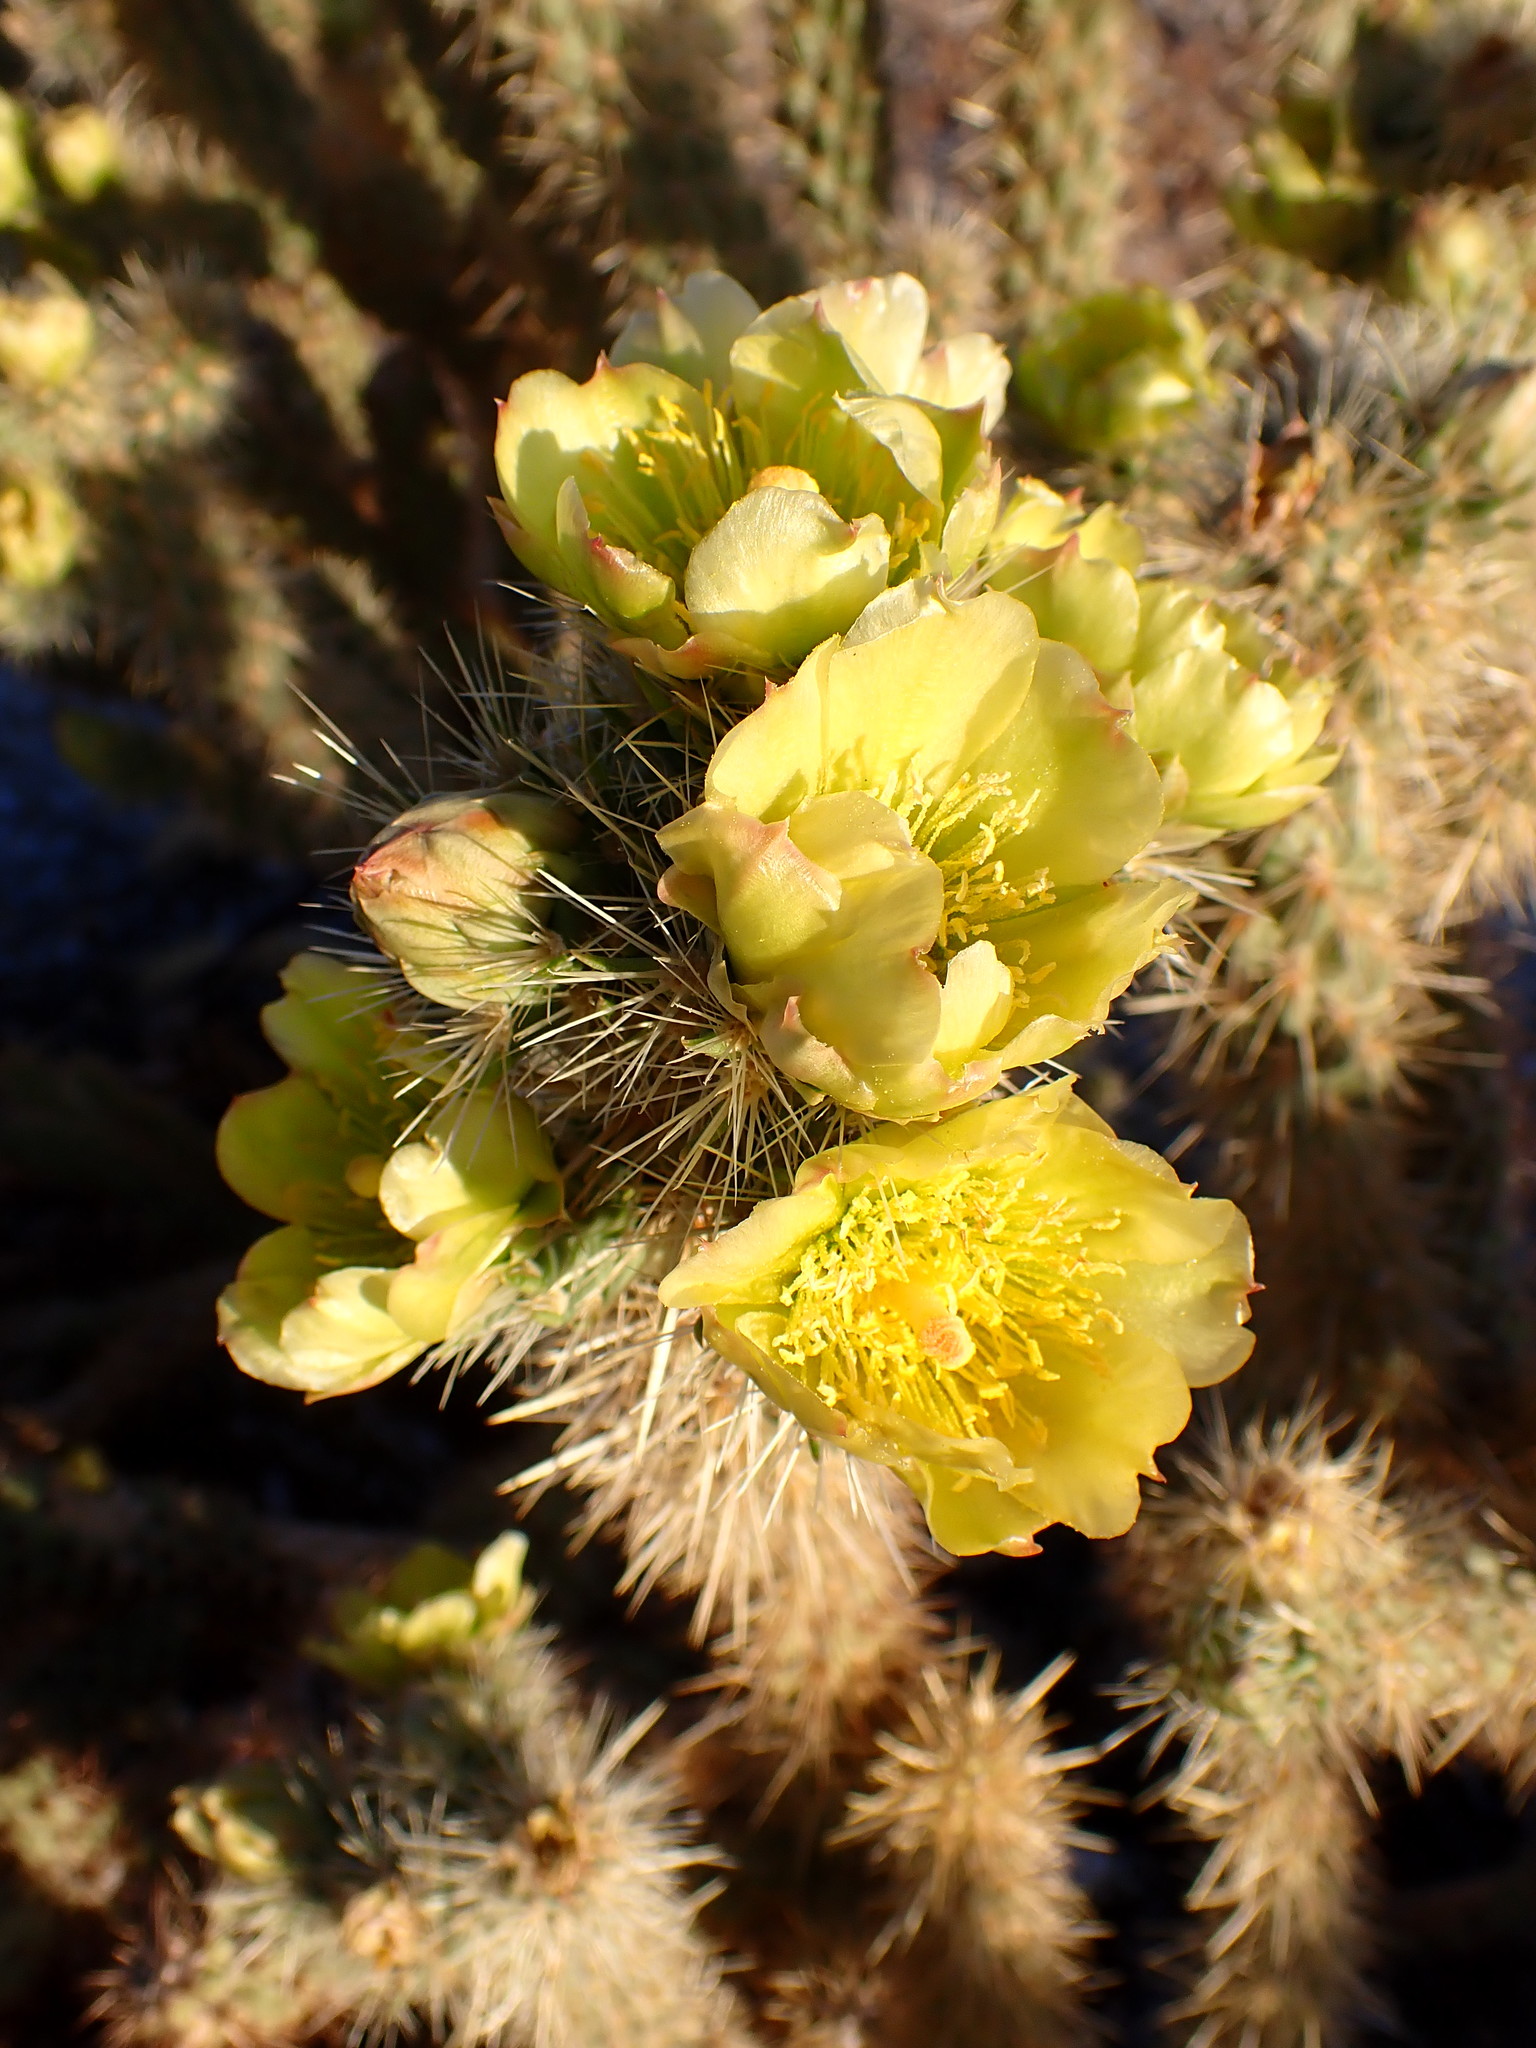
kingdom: Plantae
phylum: Tracheophyta
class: Magnoliopsida
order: Caryophyllales
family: Cactaceae
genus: Cylindropuntia
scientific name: Cylindropuntia ganderi
